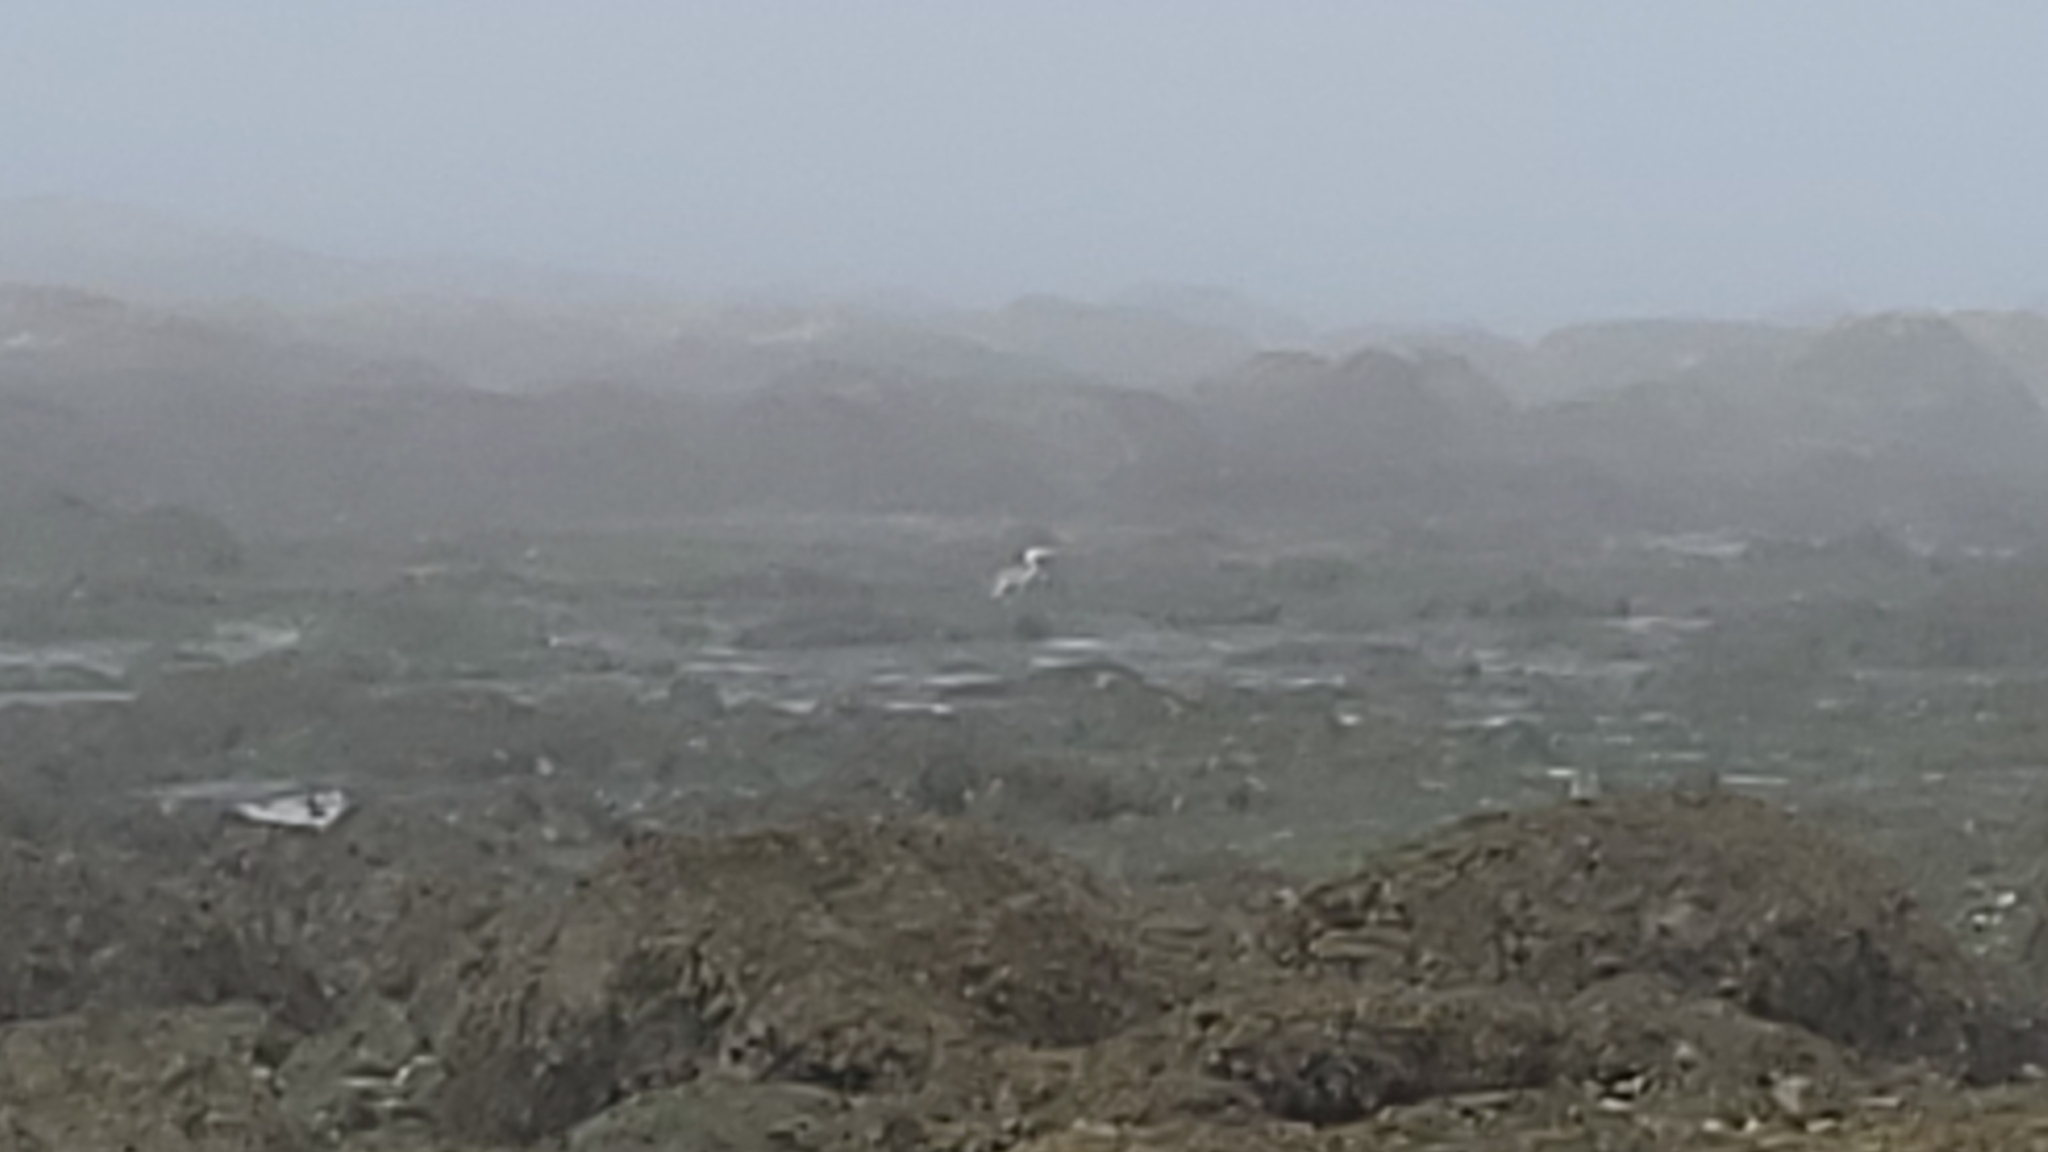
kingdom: Animalia
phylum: Chordata
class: Aves
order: Pelecaniformes
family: Ardeidae
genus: Ardea
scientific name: Ardea herodias
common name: Great blue heron
